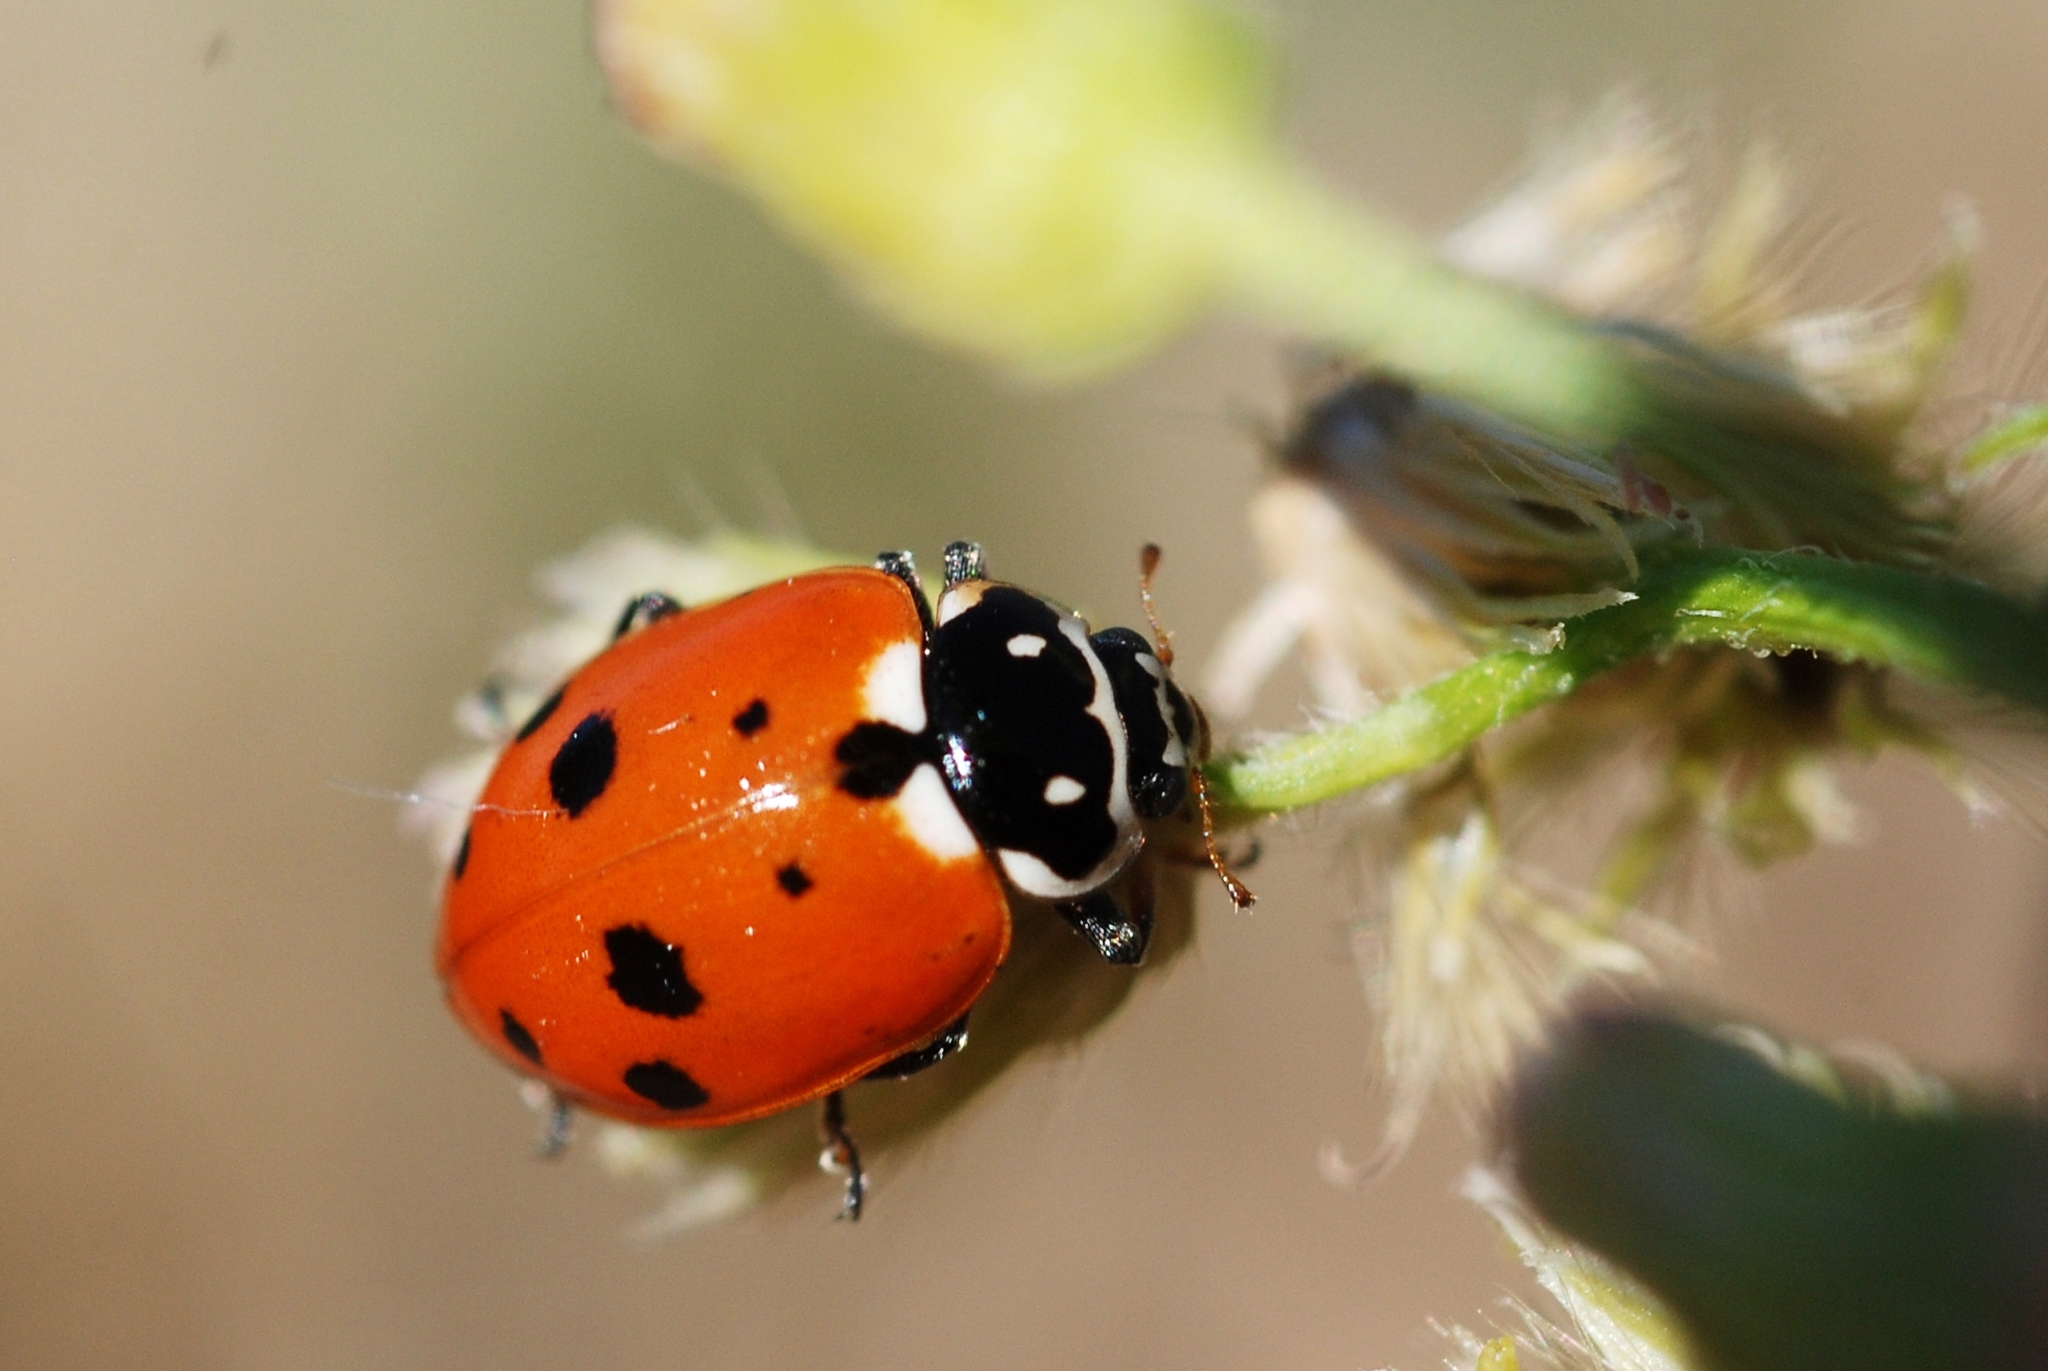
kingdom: Animalia
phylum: Arthropoda
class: Insecta
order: Coleoptera
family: Coccinellidae
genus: Hippodamia
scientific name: Hippodamia variegata
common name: Ladybird beetle
